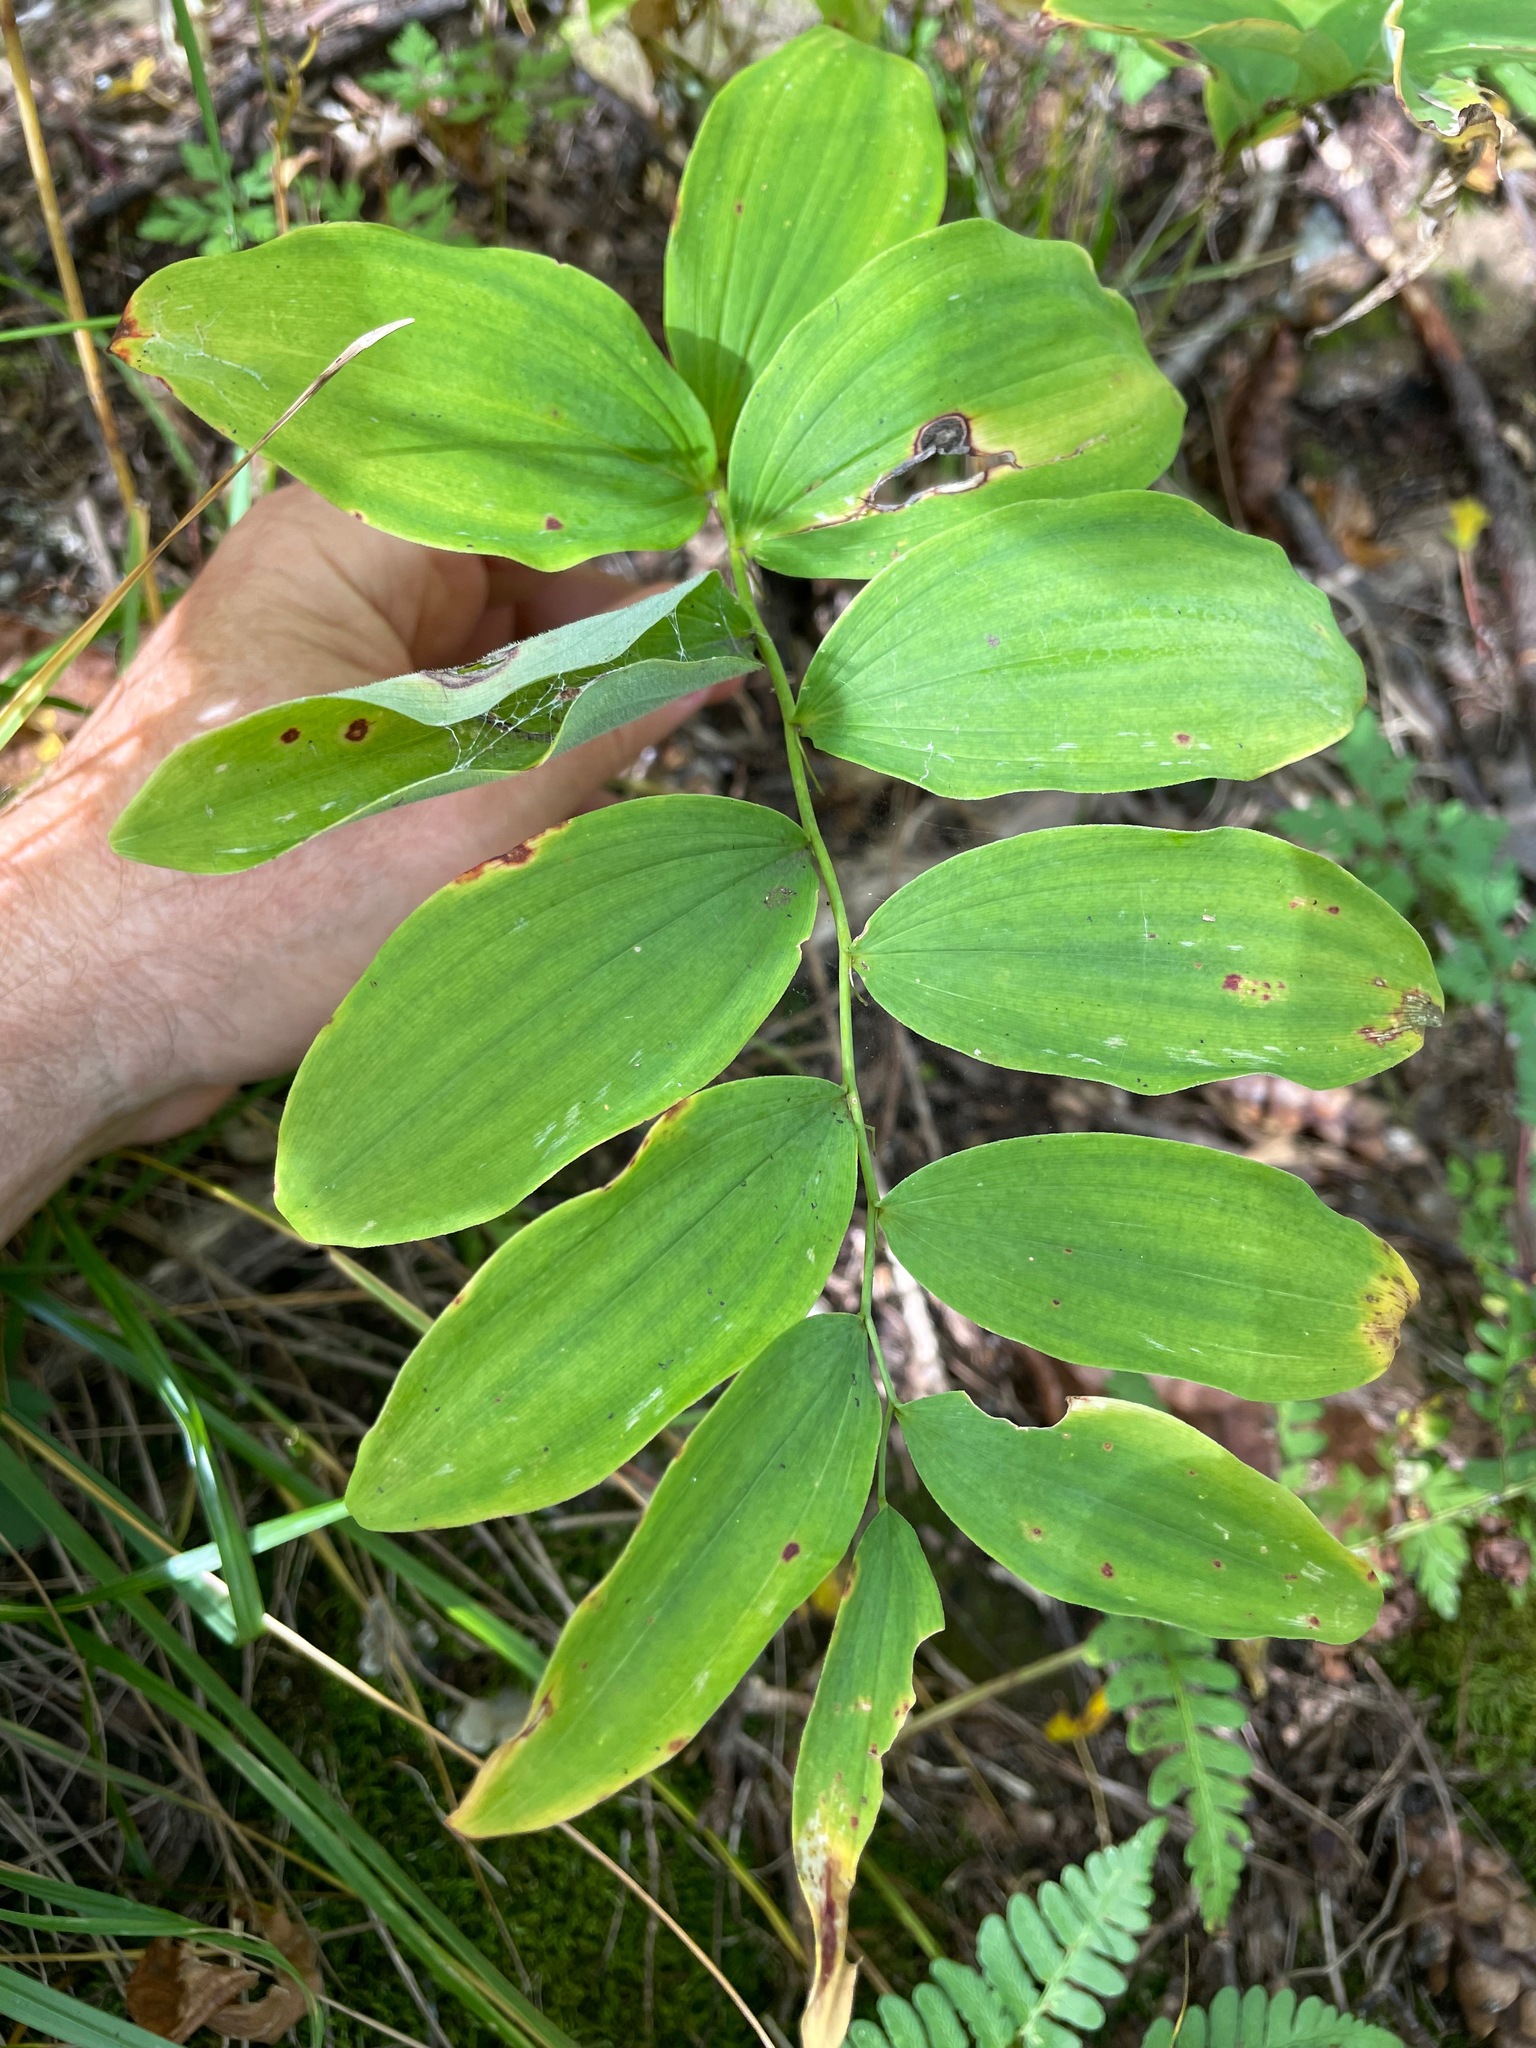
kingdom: Plantae
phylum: Tracheophyta
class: Liliopsida
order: Asparagales
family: Asparagaceae
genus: Polygonatum
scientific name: Polygonatum pubescens
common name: Downy solomon's seal
